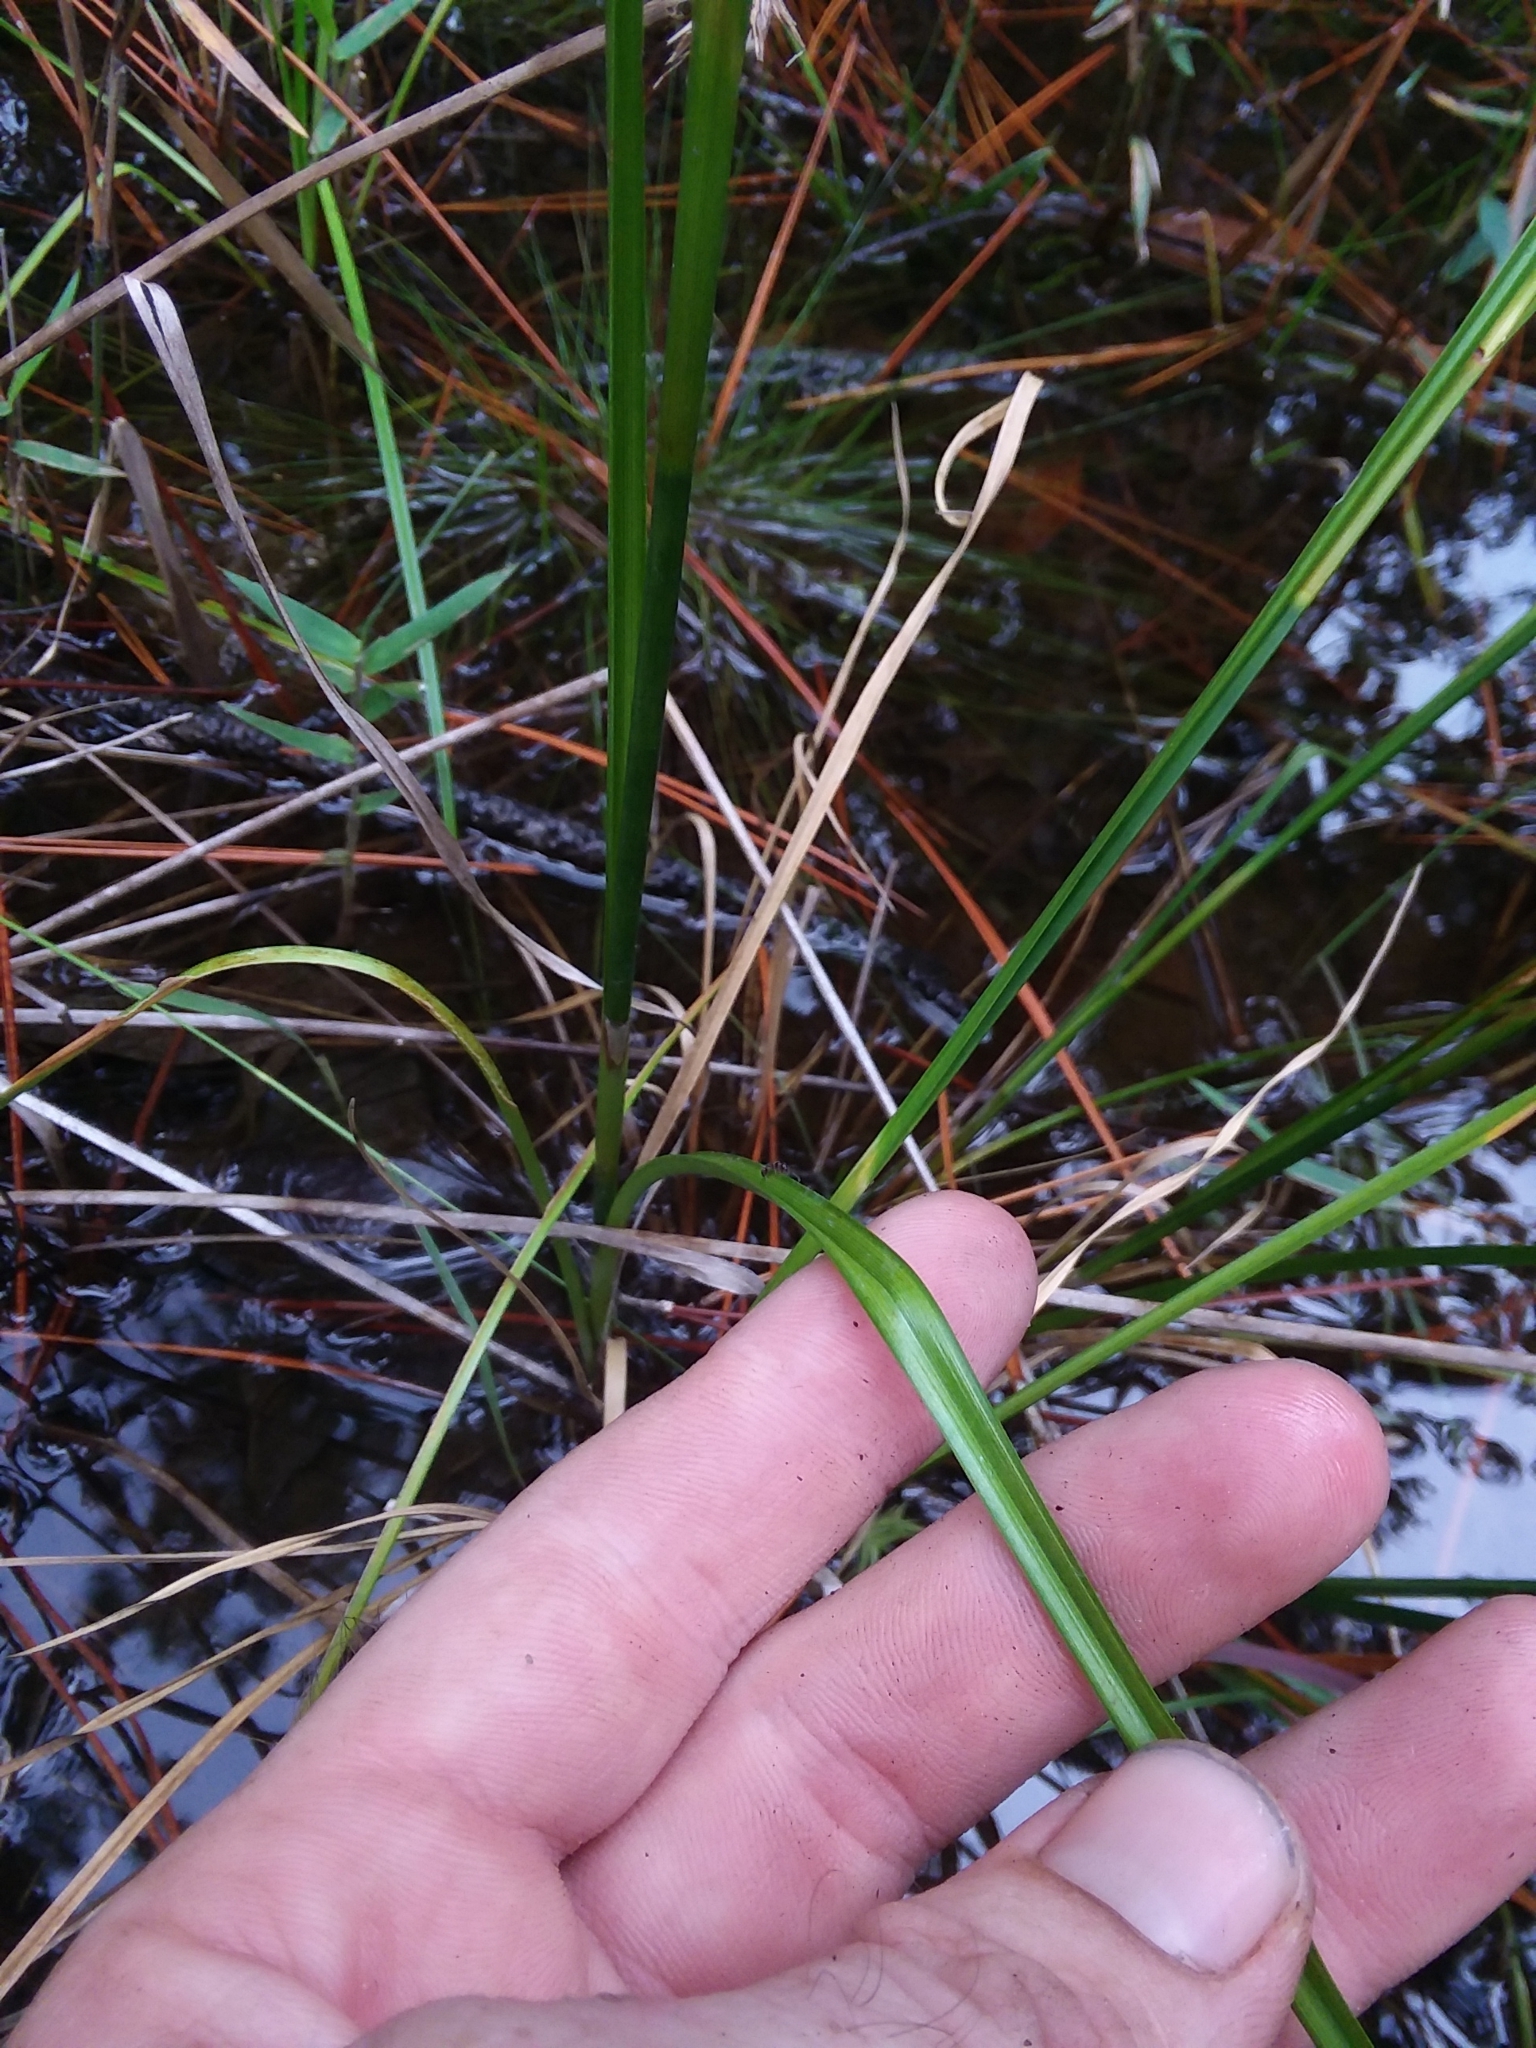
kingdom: Plantae
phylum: Tracheophyta
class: Liliopsida
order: Poales
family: Cyperaceae
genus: Rhynchospora
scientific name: Rhynchospora cephalantha
